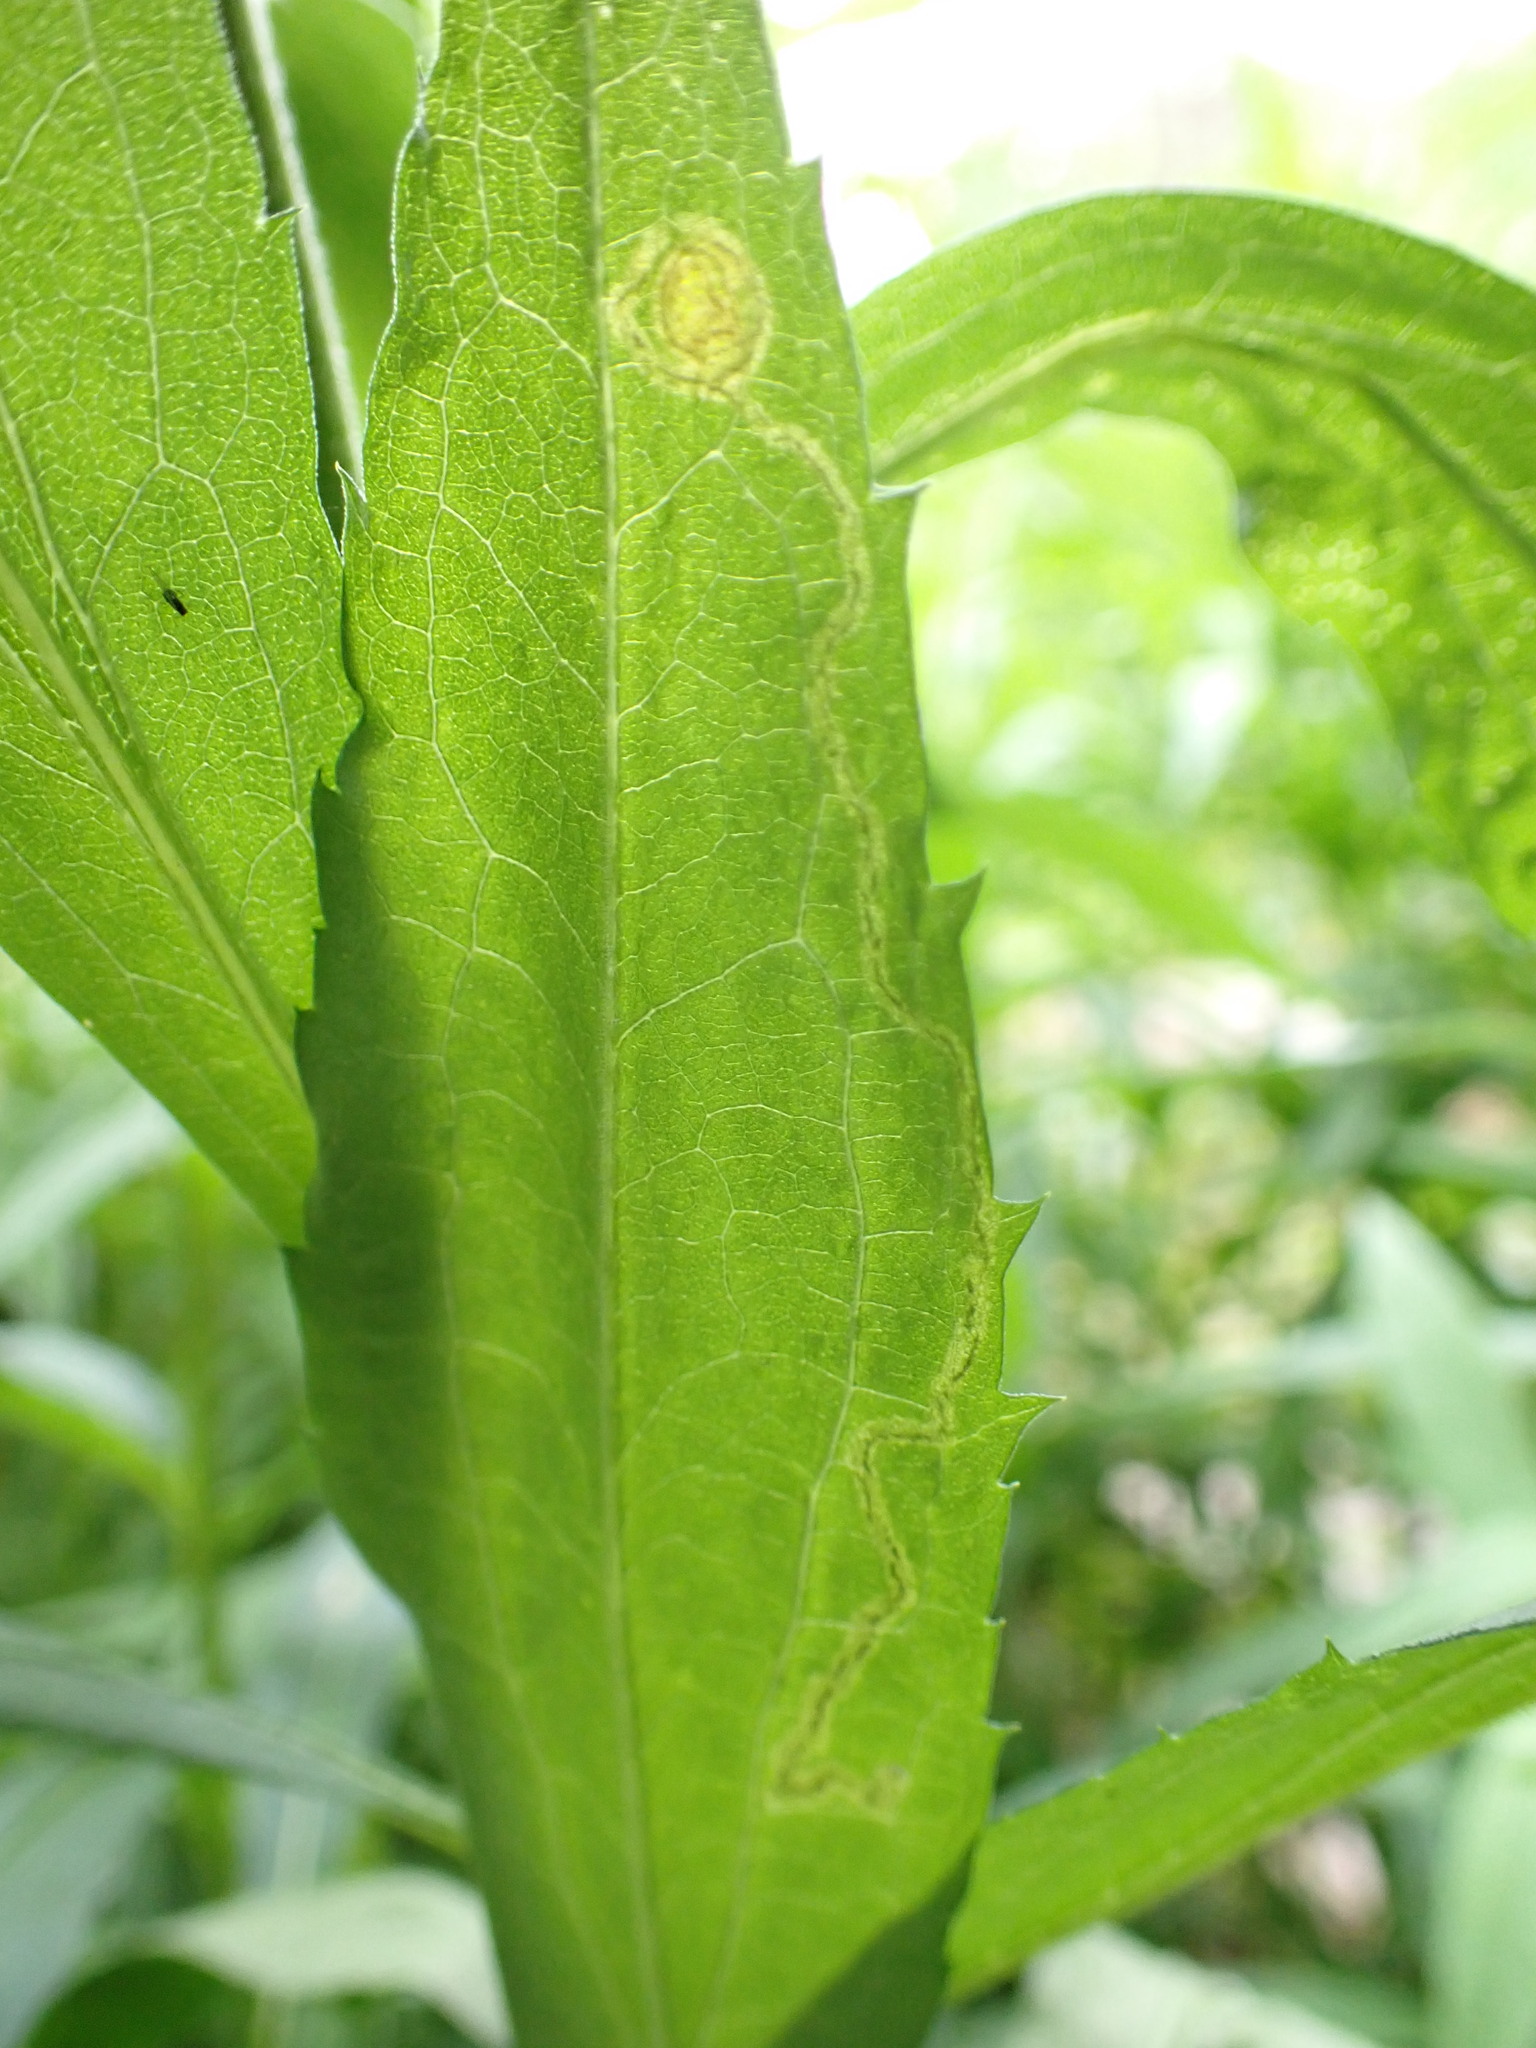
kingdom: Animalia
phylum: Arthropoda
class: Insecta
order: Diptera
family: Agromyzidae
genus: Liriomyza
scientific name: Liriomyza eupatorii
